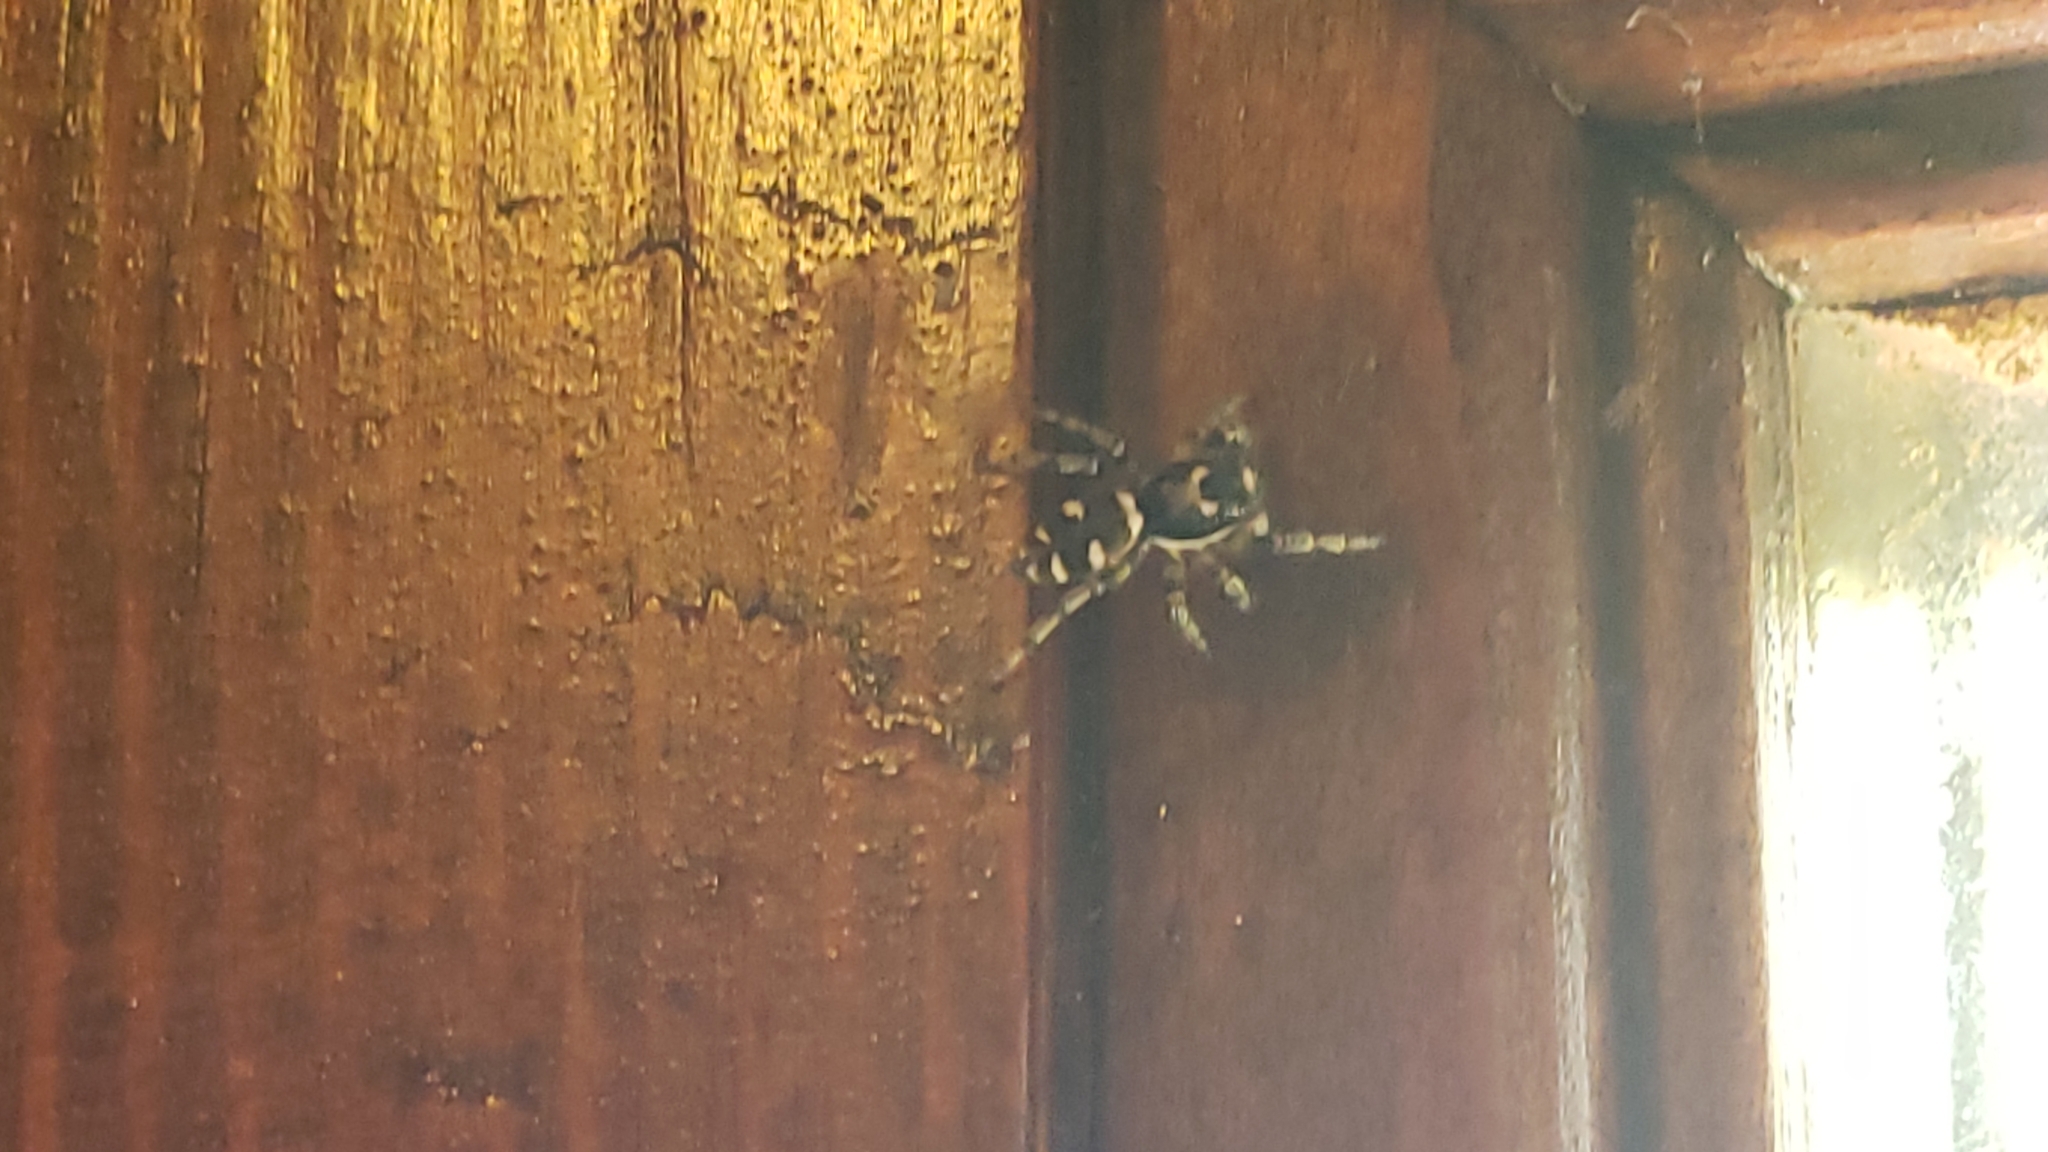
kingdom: Animalia
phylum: Arthropoda
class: Arachnida
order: Araneae
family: Salticidae
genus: Salticus
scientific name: Salticus scenicus
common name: Zebra jumper
